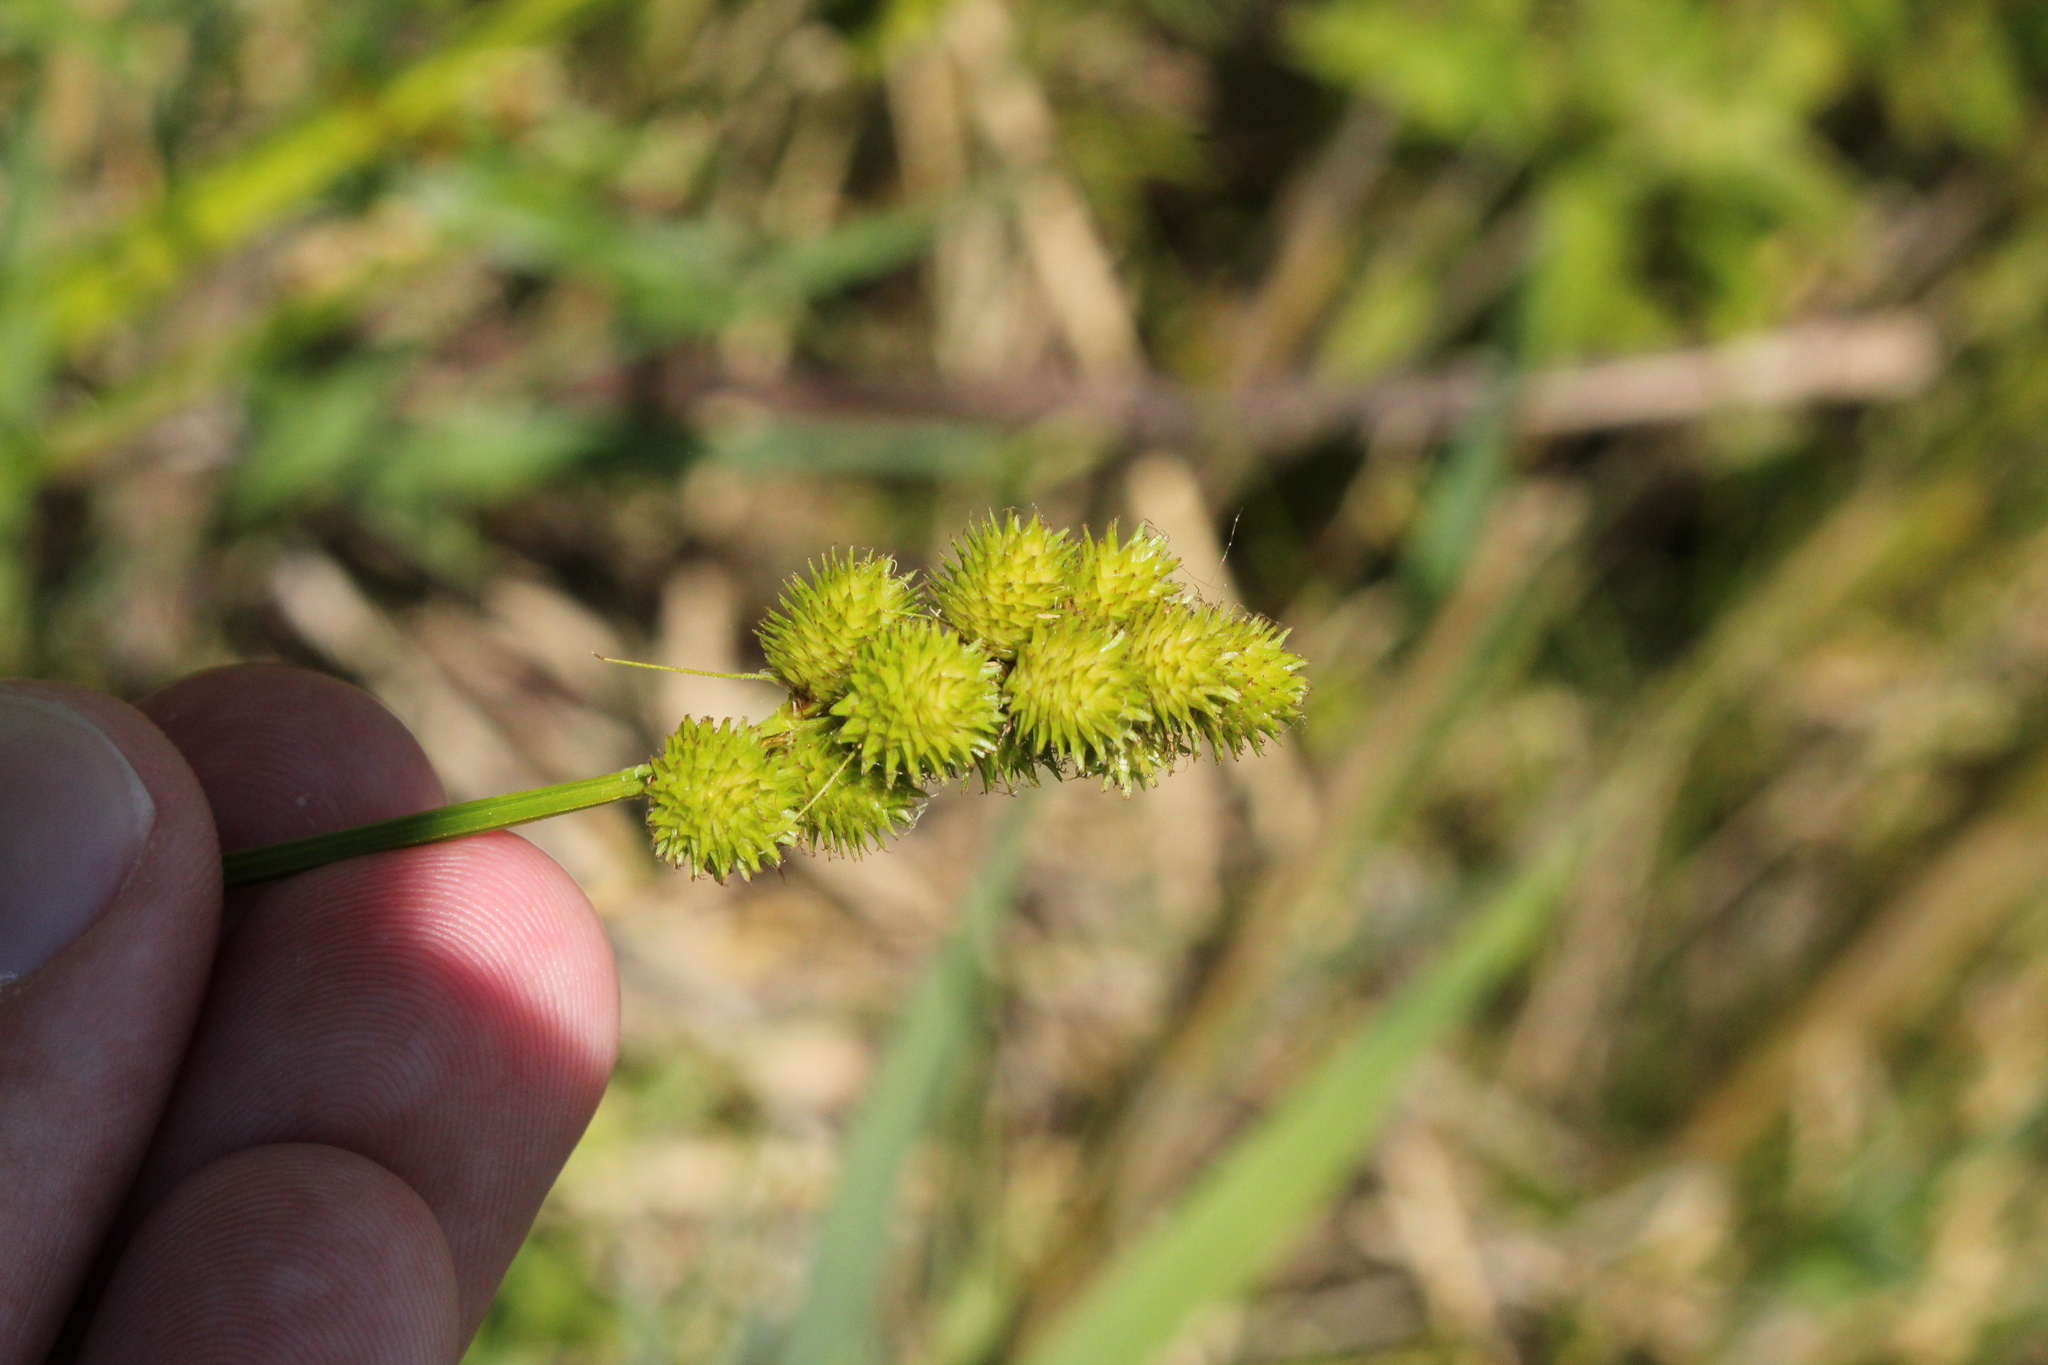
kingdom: Plantae
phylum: Tracheophyta
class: Liliopsida
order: Poales
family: Cyperaceae
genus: Carex
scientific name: Carex cristatella
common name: Crested oval sedge
